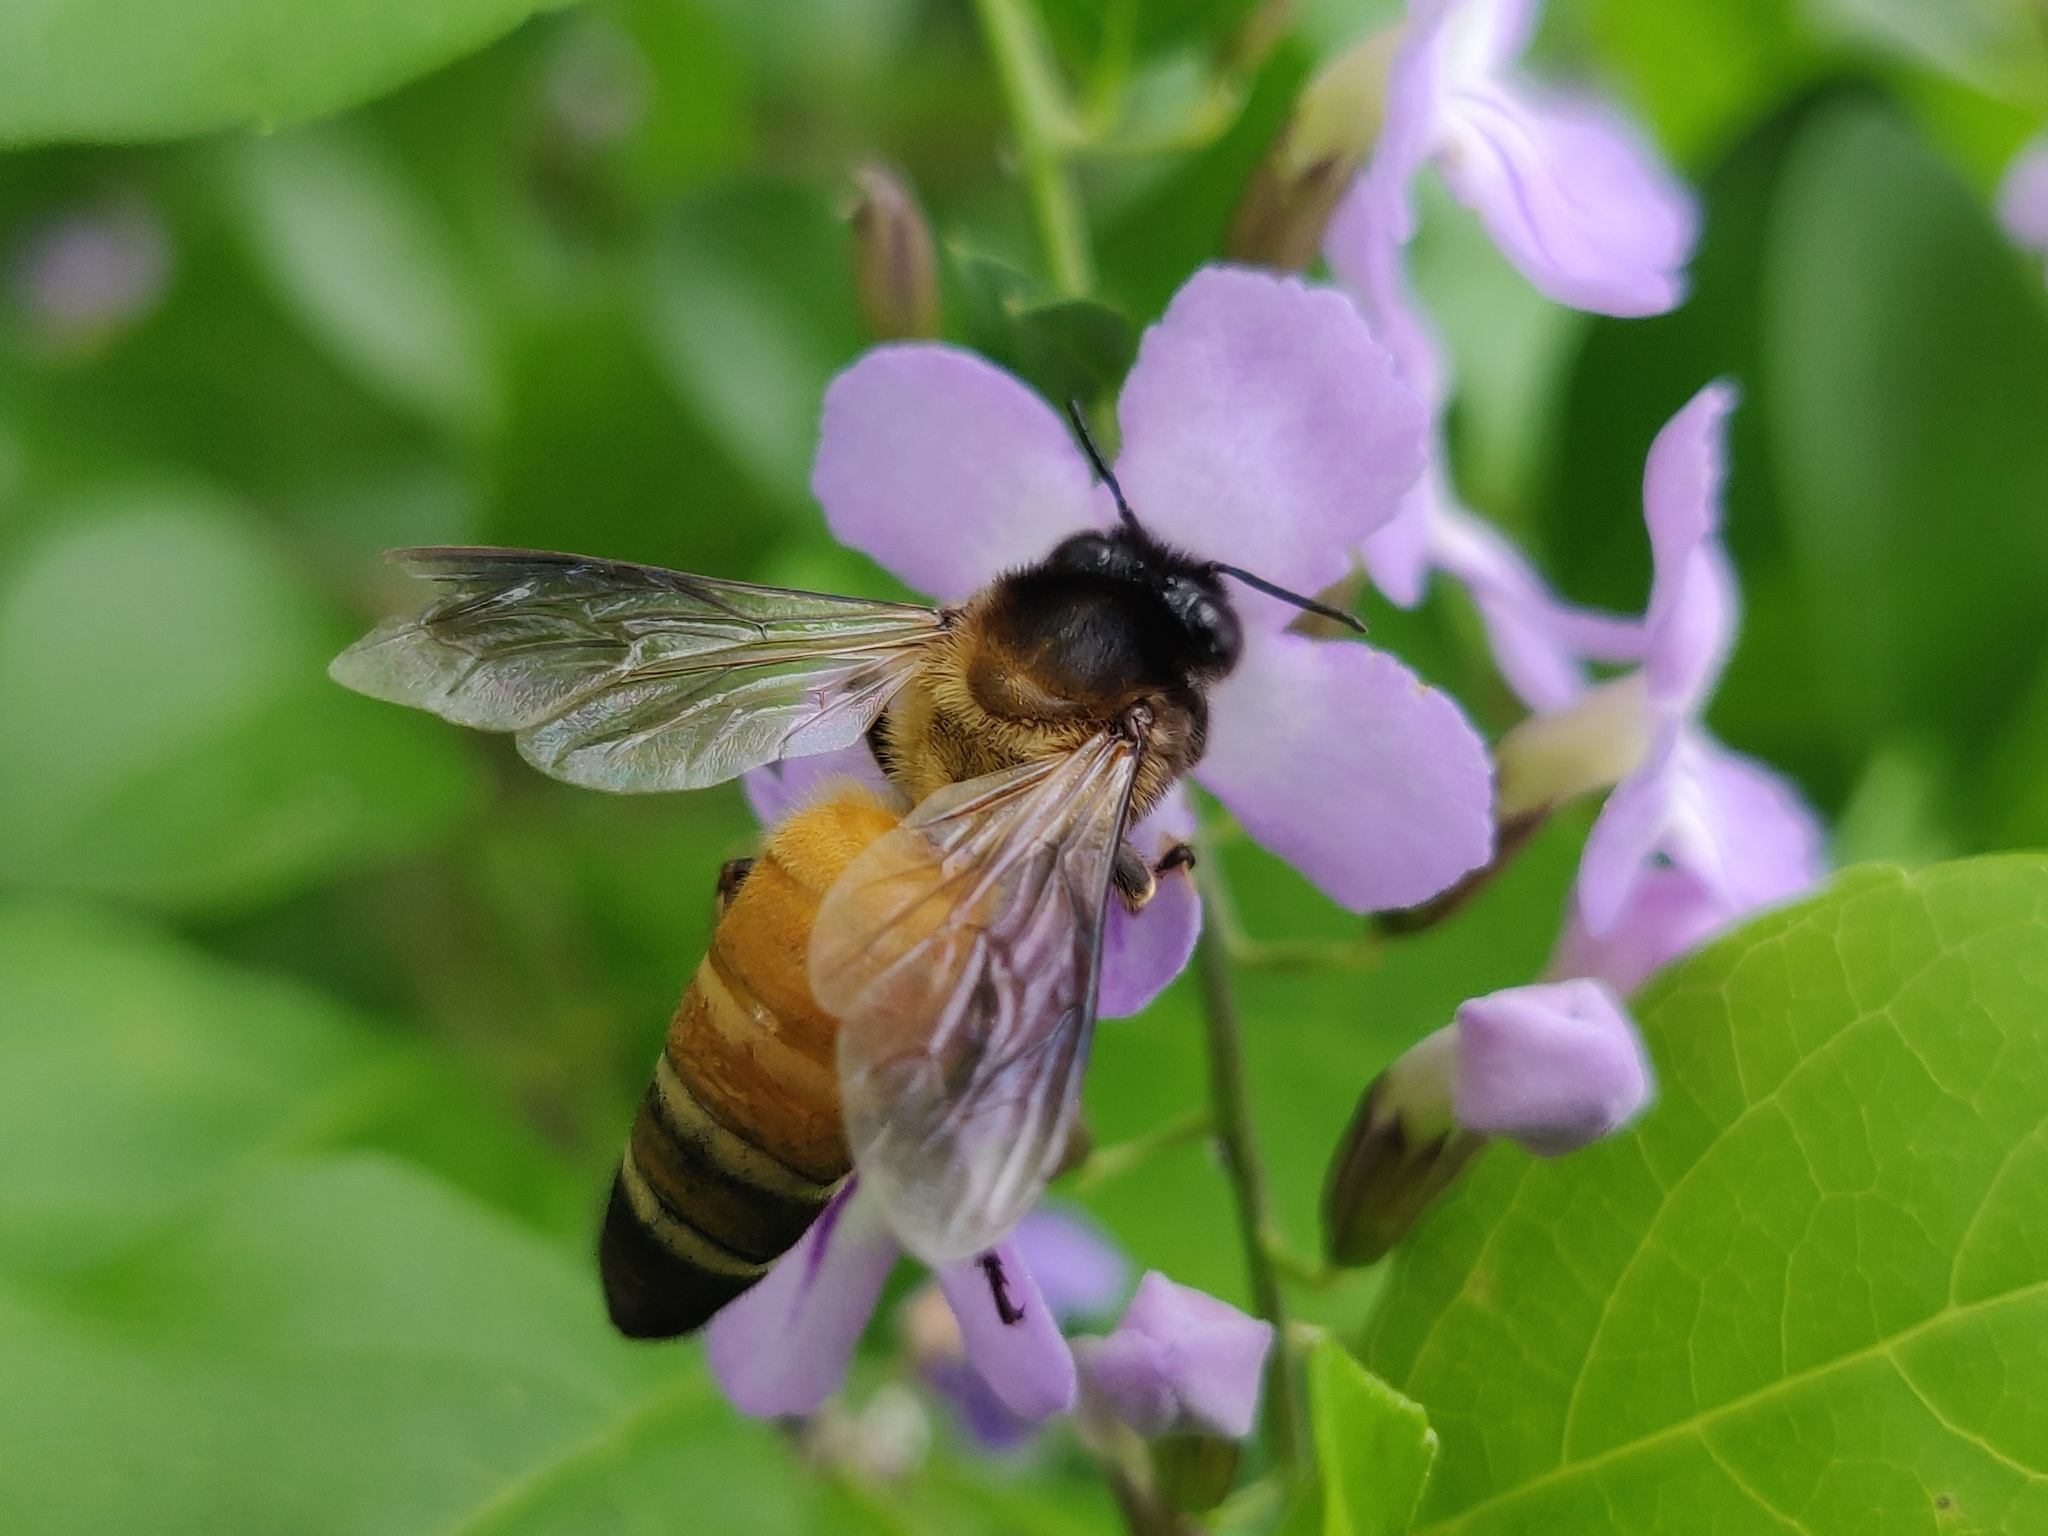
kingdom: Animalia
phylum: Arthropoda
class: Insecta
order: Hymenoptera
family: Apidae
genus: Apis
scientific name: Apis dorsata
